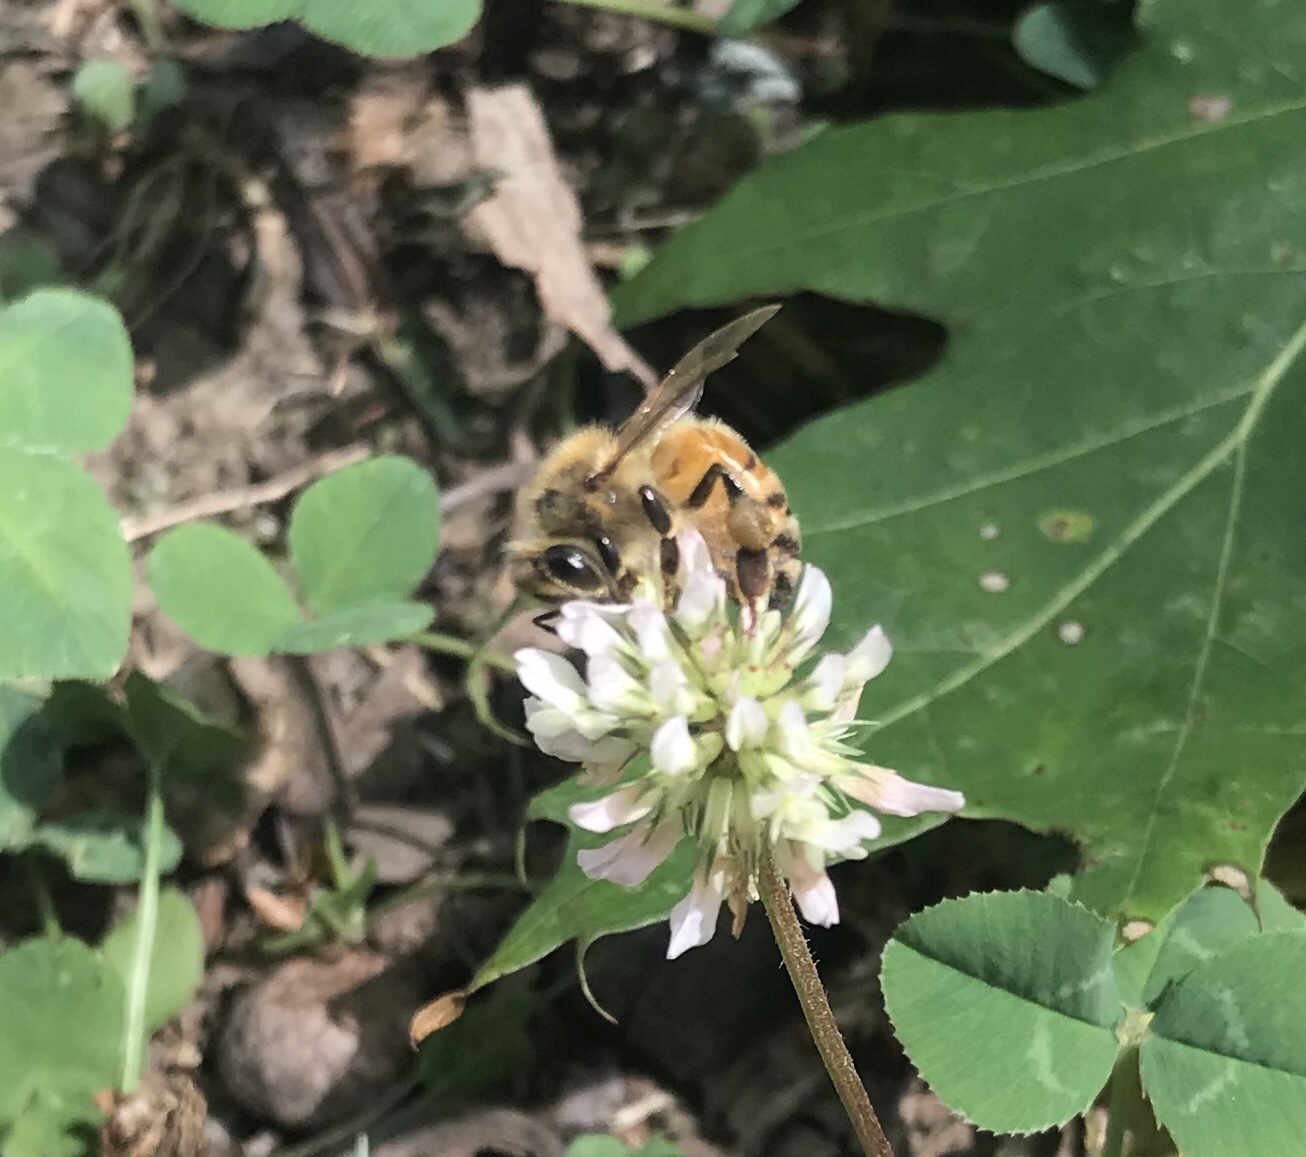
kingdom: Animalia
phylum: Arthropoda
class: Insecta
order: Hymenoptera
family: Apidae
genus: Apis
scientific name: Apis mellifera
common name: Honey bee
